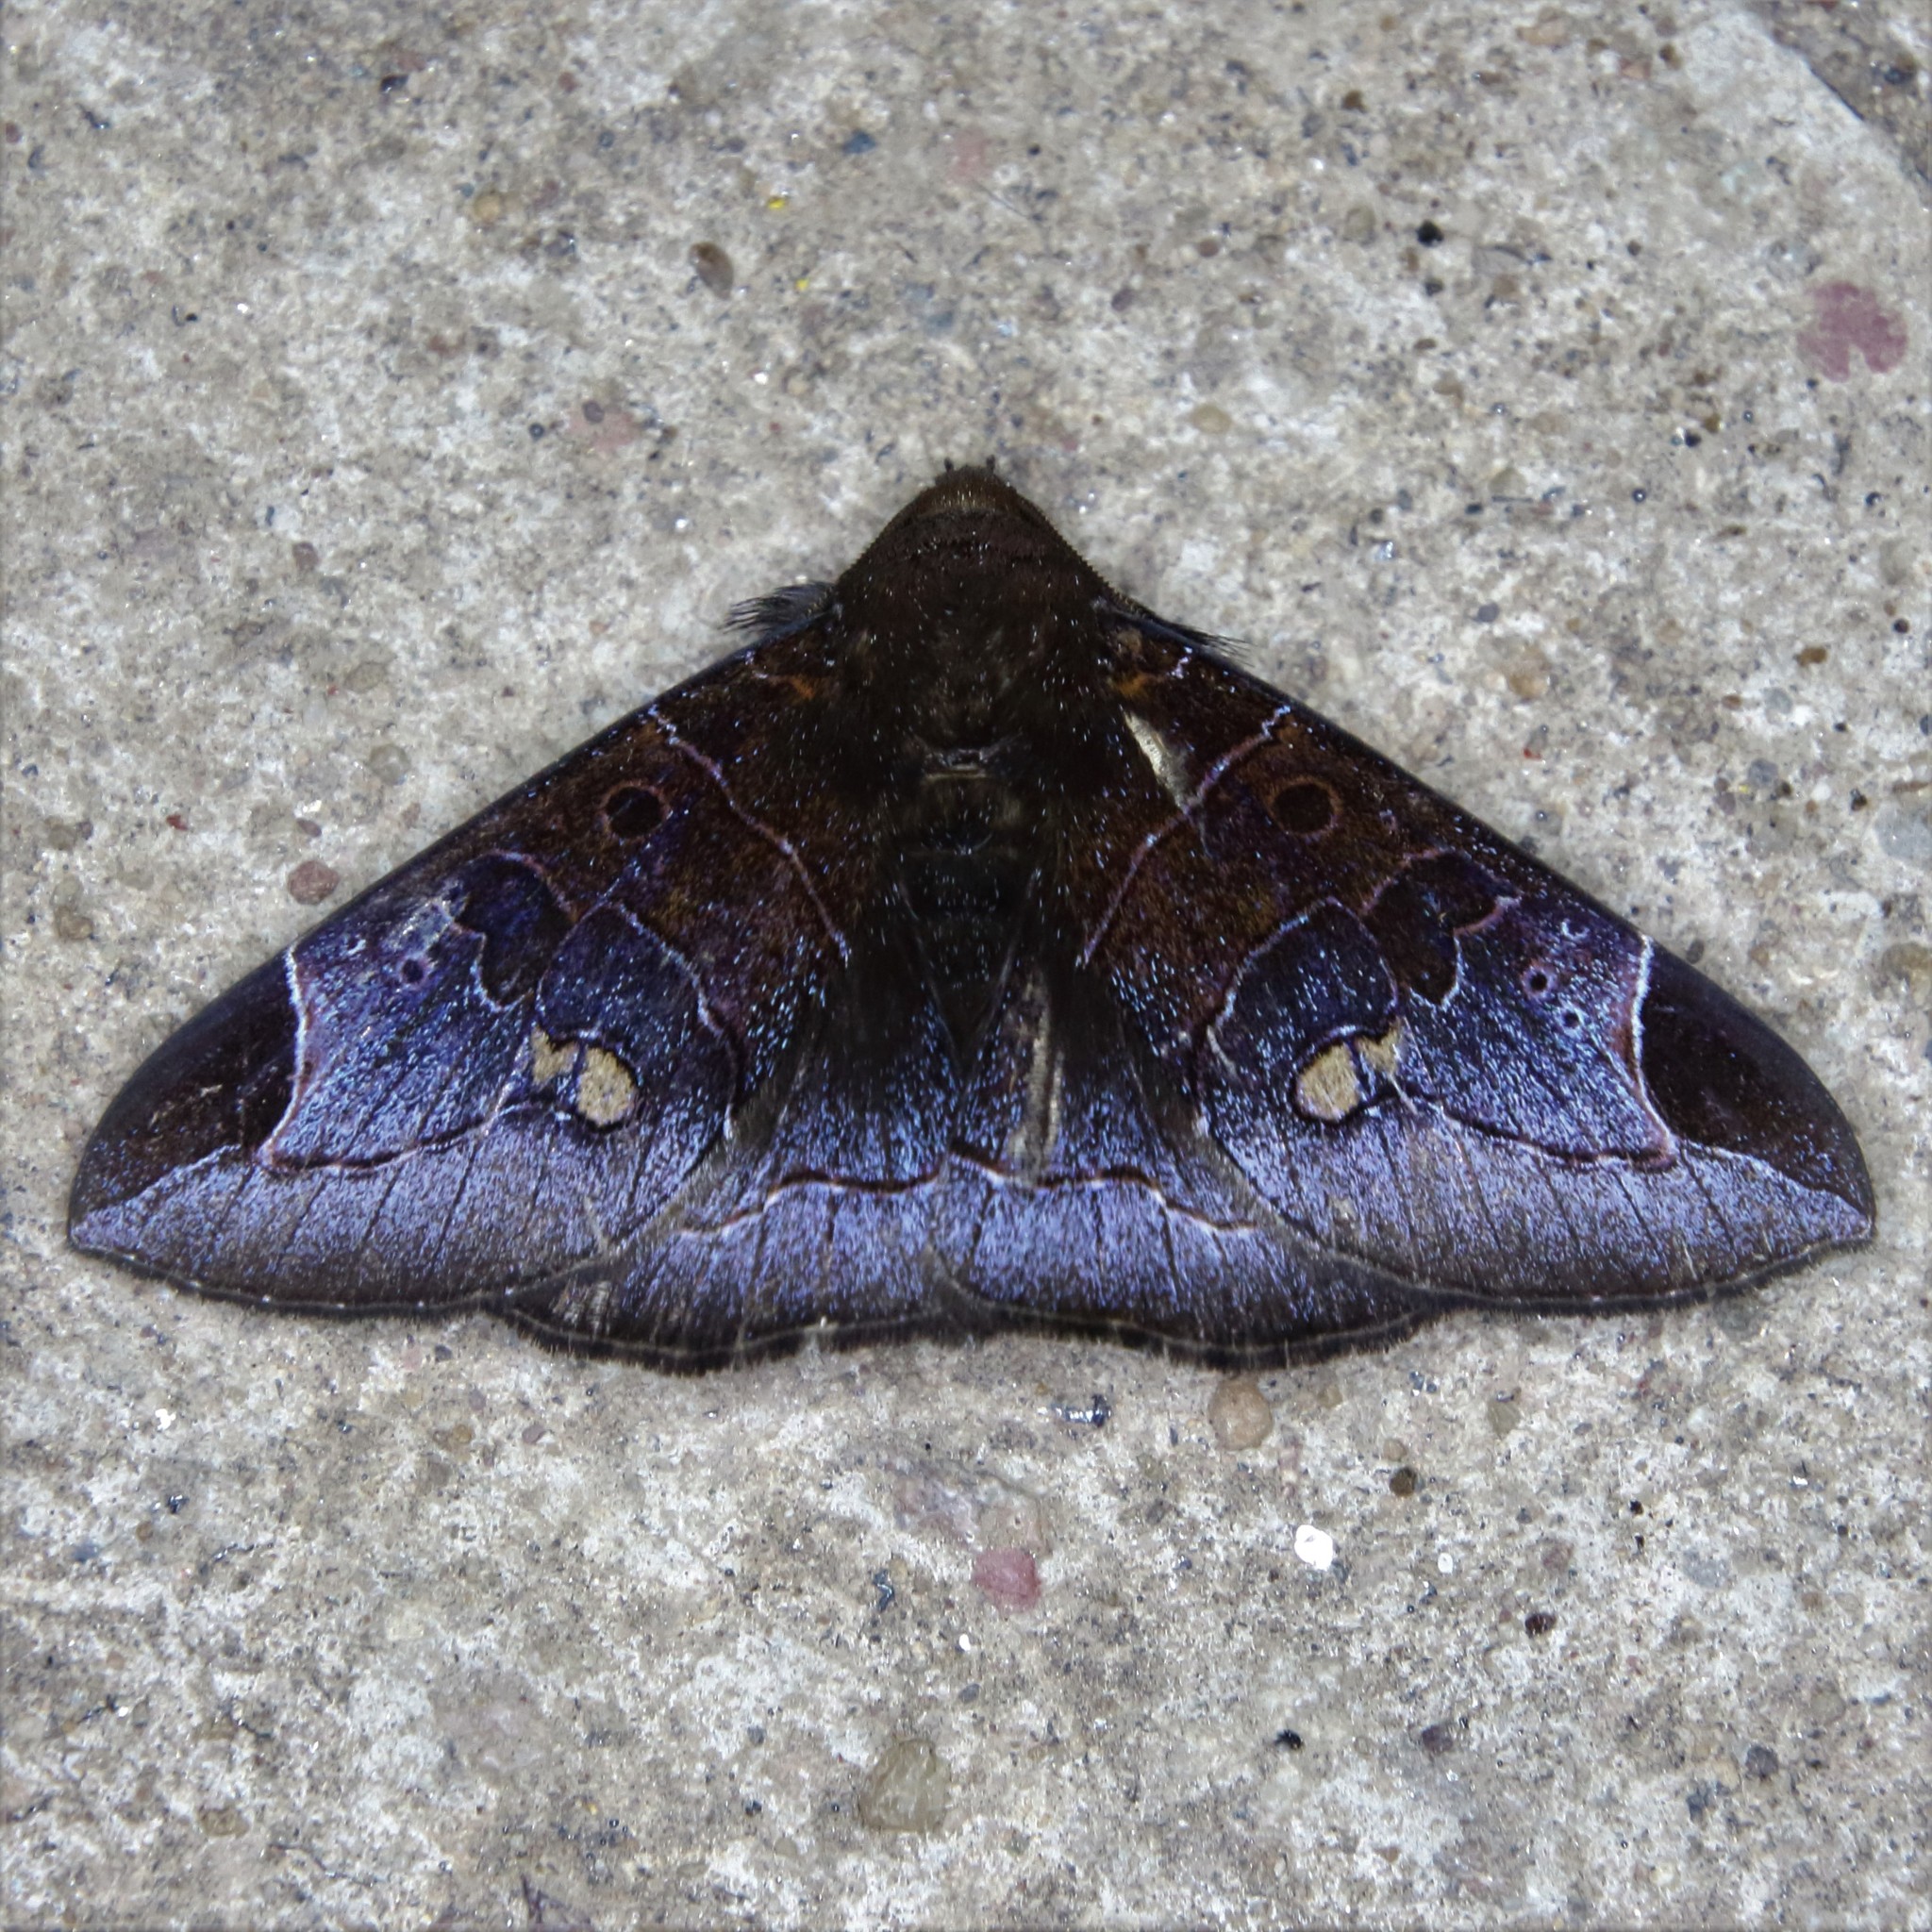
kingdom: Animalia
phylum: Arthropoda
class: Insecta
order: Lepidoptera
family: Erebidae
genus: Platyja
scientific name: Platyja torsilinea
